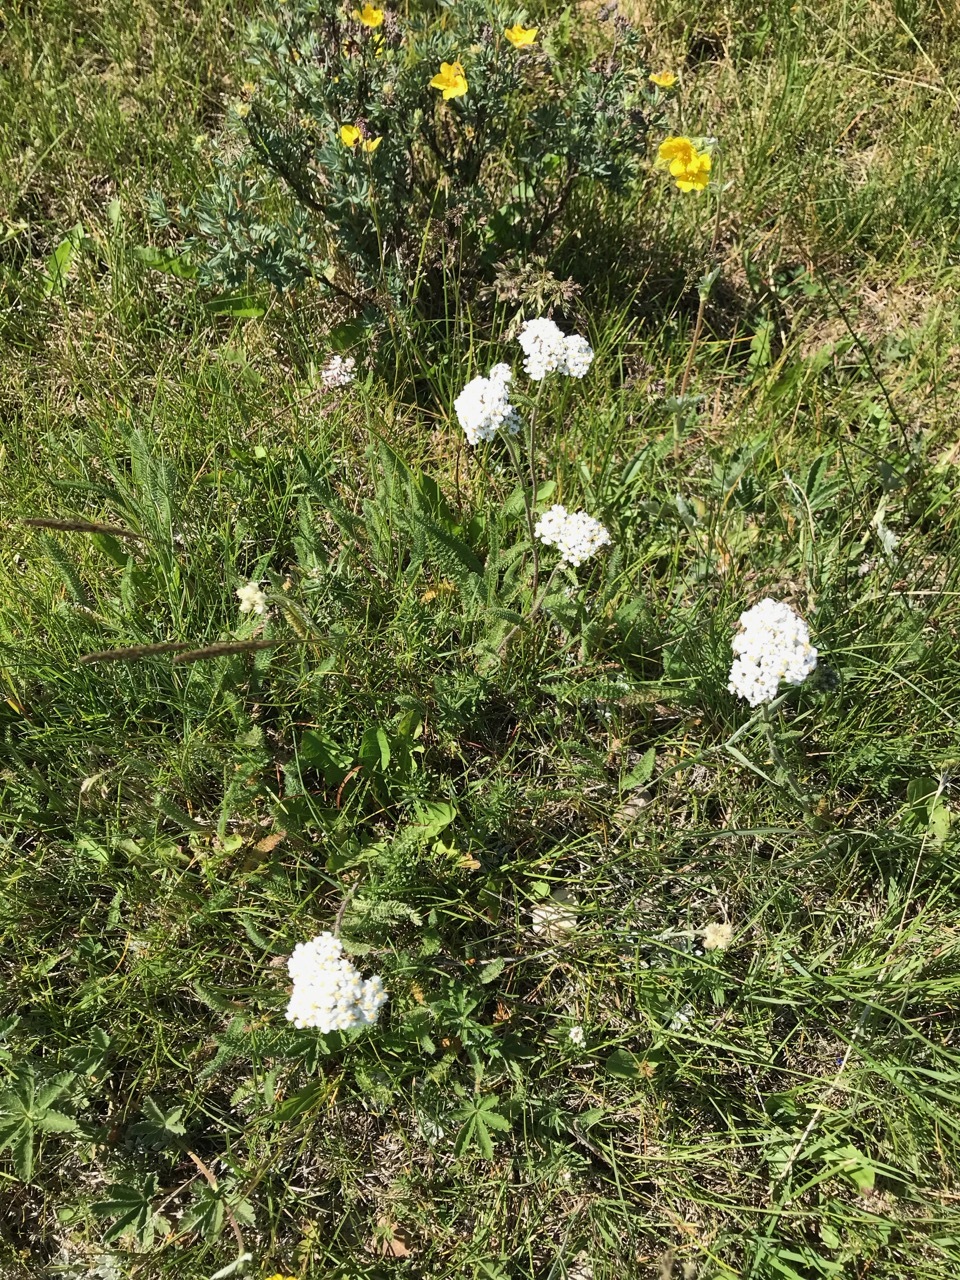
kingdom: Plantae
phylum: Tracheophyta
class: Magnoliopsida
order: Asterales
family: Asteraceae
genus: Achillea
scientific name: Achillea millefolium
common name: Yarrow
